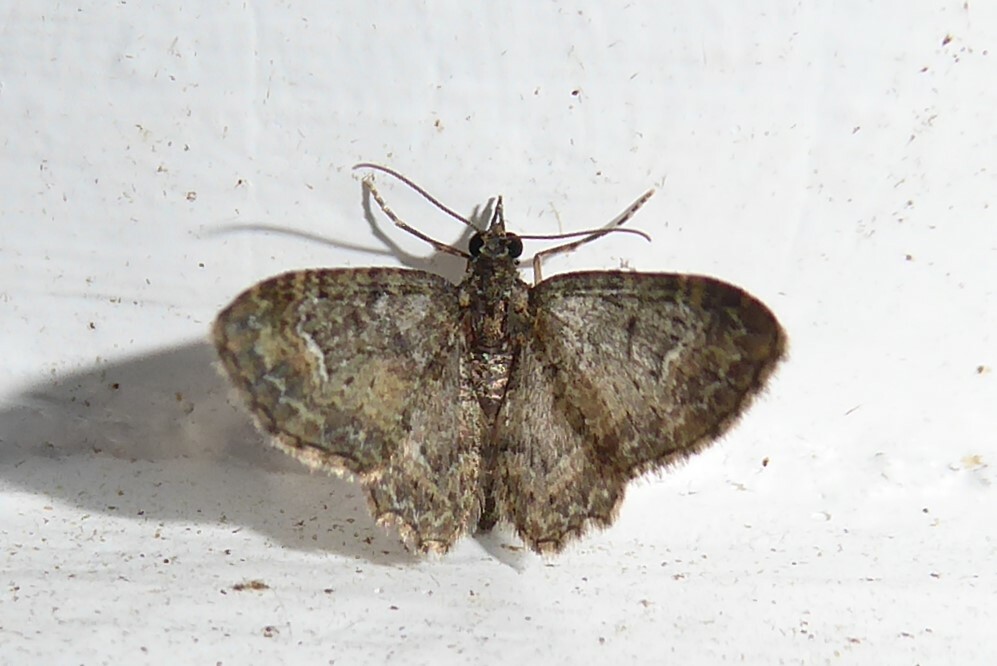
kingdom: Animalia
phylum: Arthropoda
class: Insecta
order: Lepidoptera
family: Geometridae
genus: Pasiphilodes
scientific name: Pasiphilodes testulata
